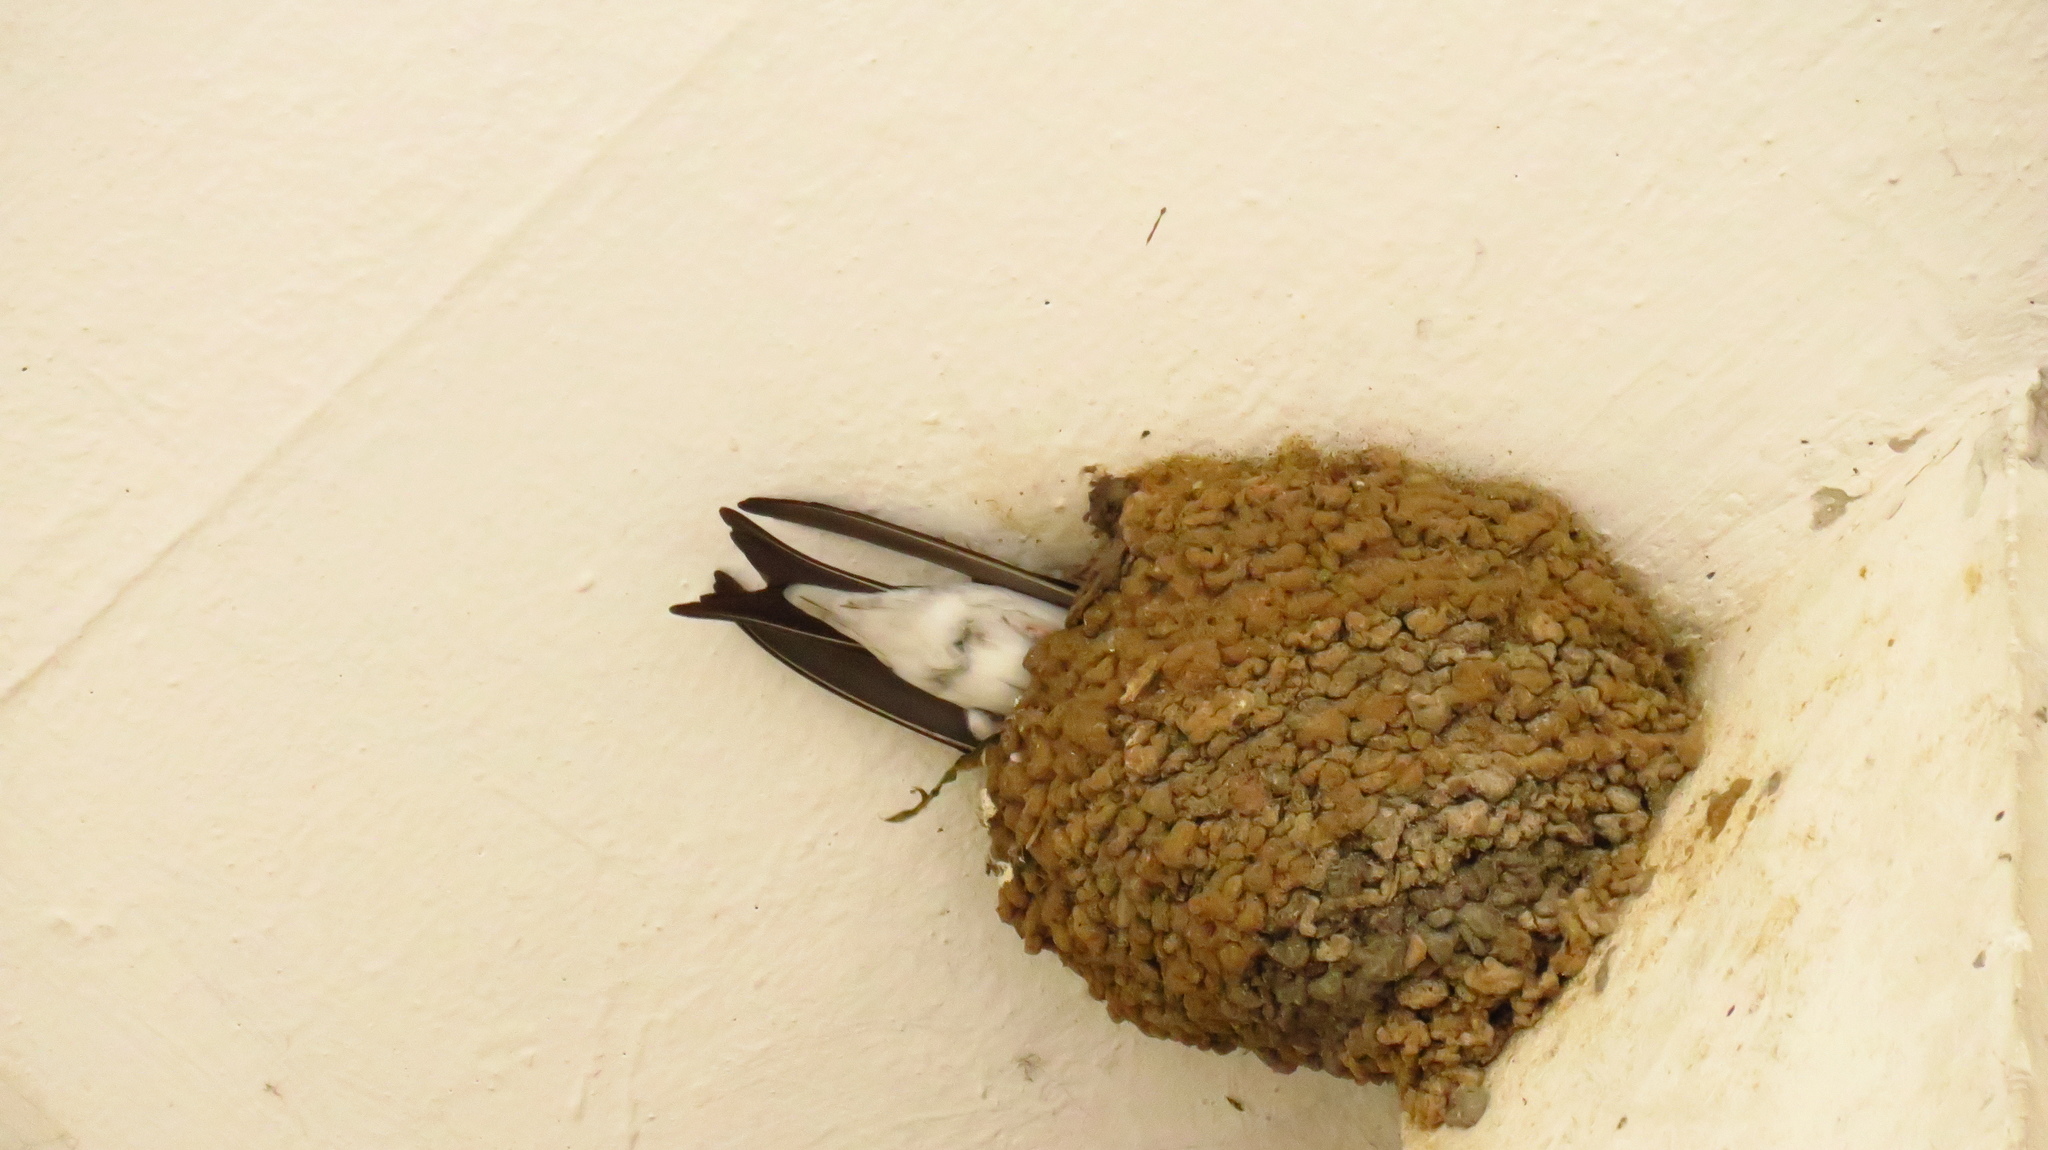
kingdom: Animalia
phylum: Chordata
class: Aves
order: Passeriformes
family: Hirundinidae
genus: Delichon
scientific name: Delichon urbicum
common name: Common house martin
